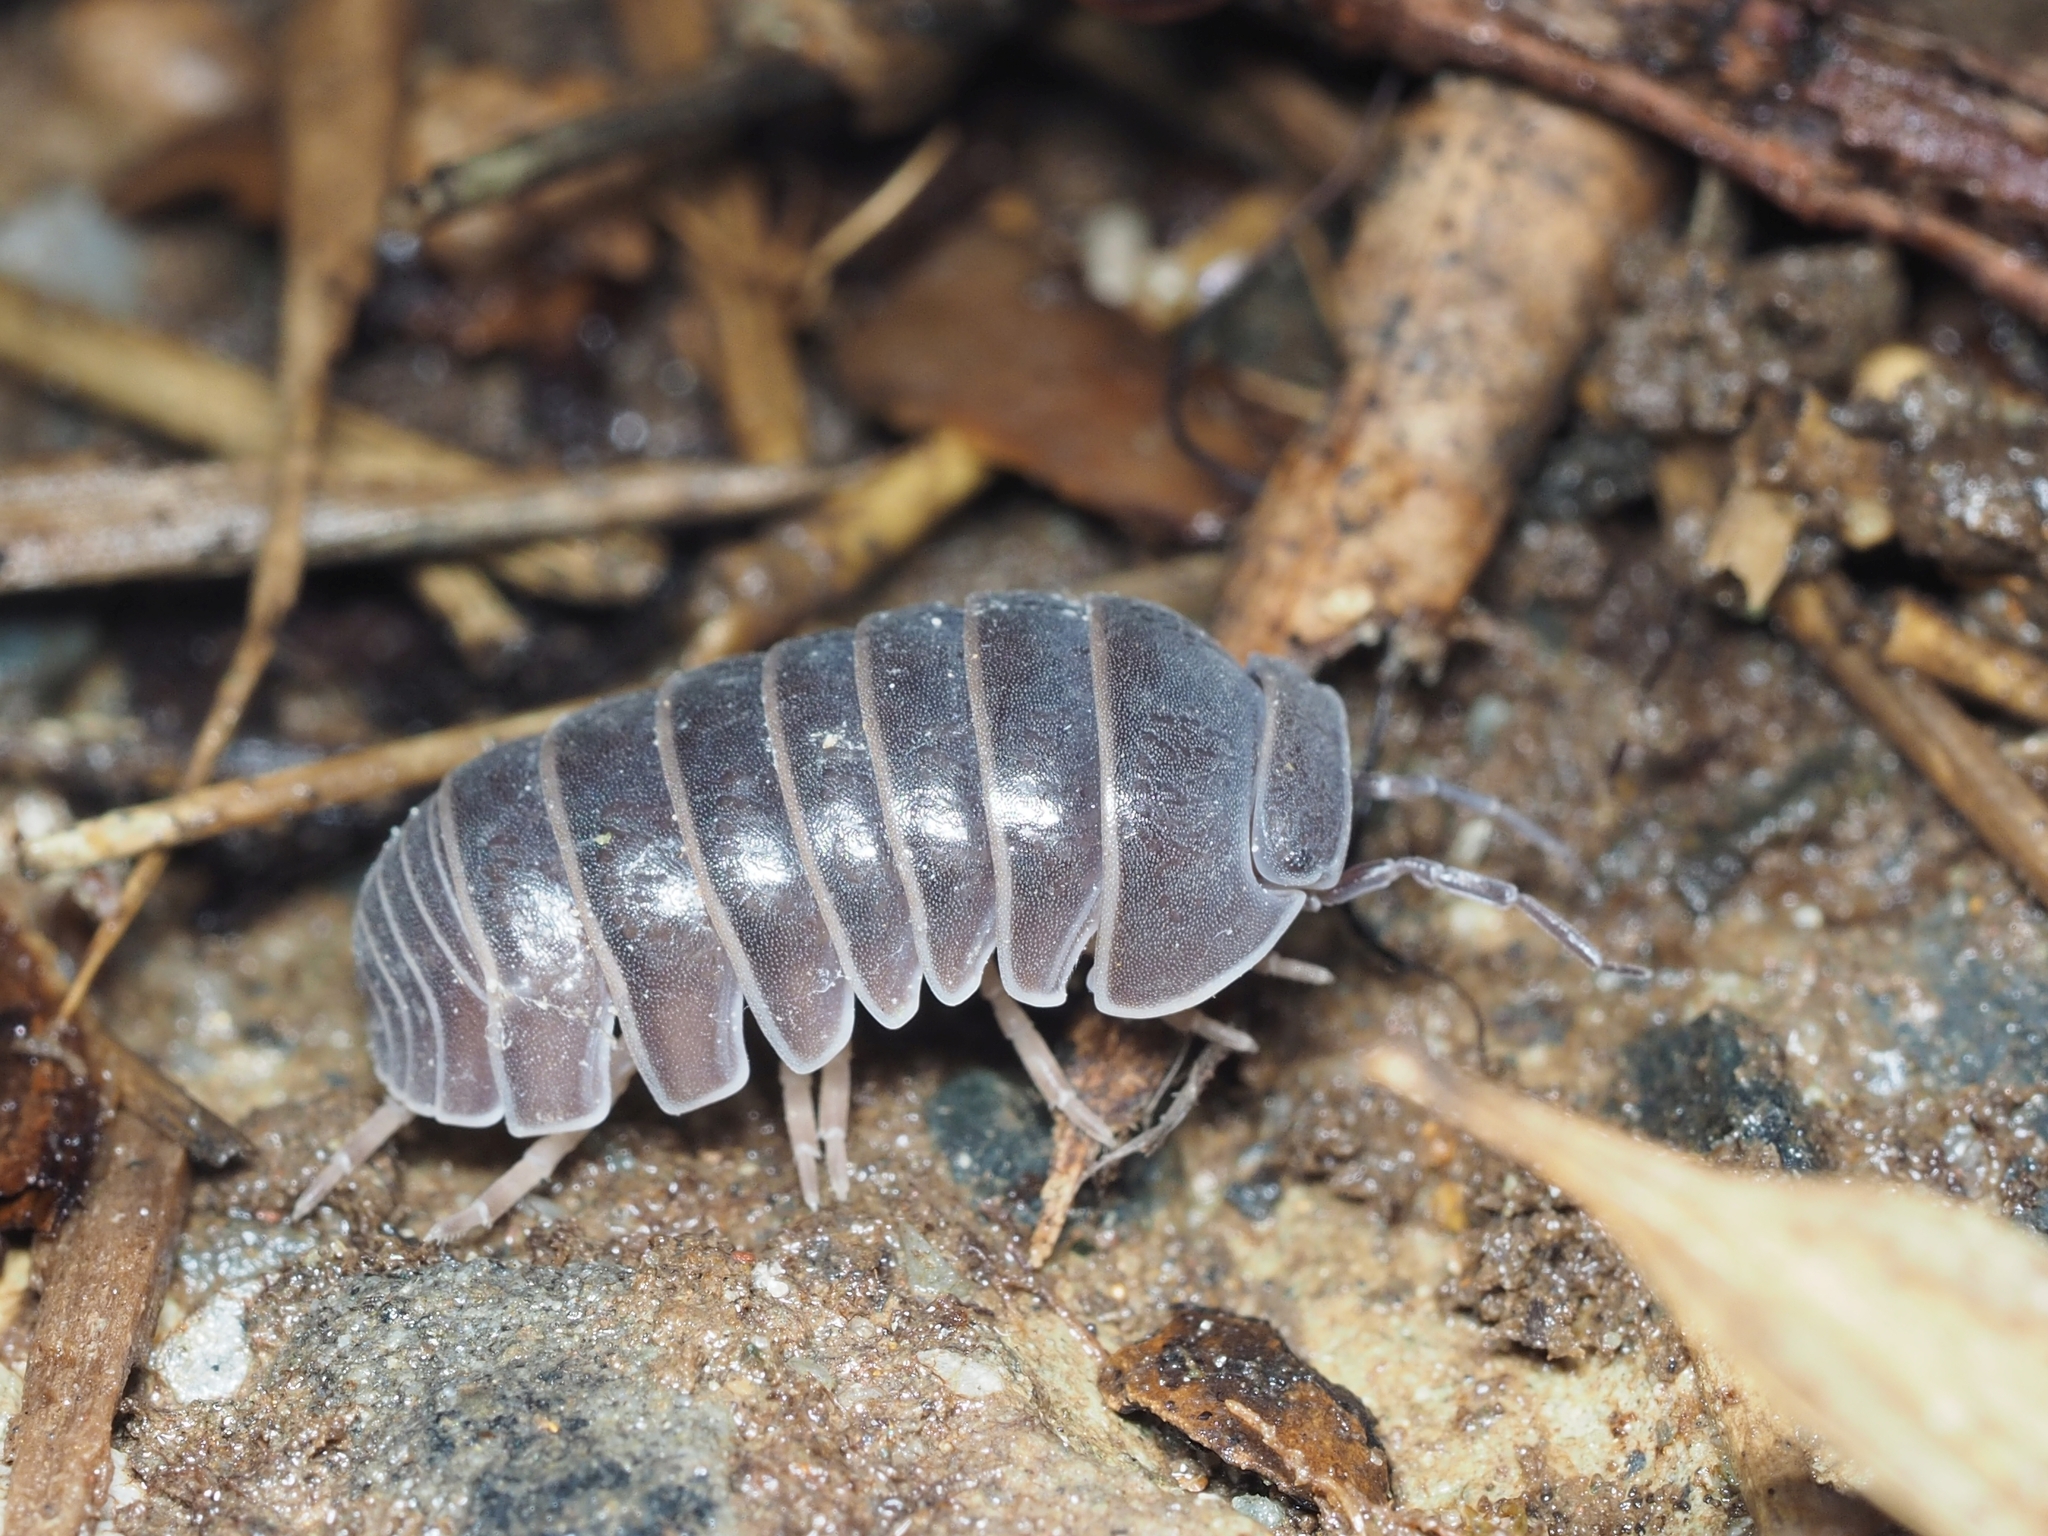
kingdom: Animalia
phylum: Arthropoda
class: Malacostraca
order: Isopoda
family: Armadillidae
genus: Armadillo
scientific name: Armadillo officinalis
